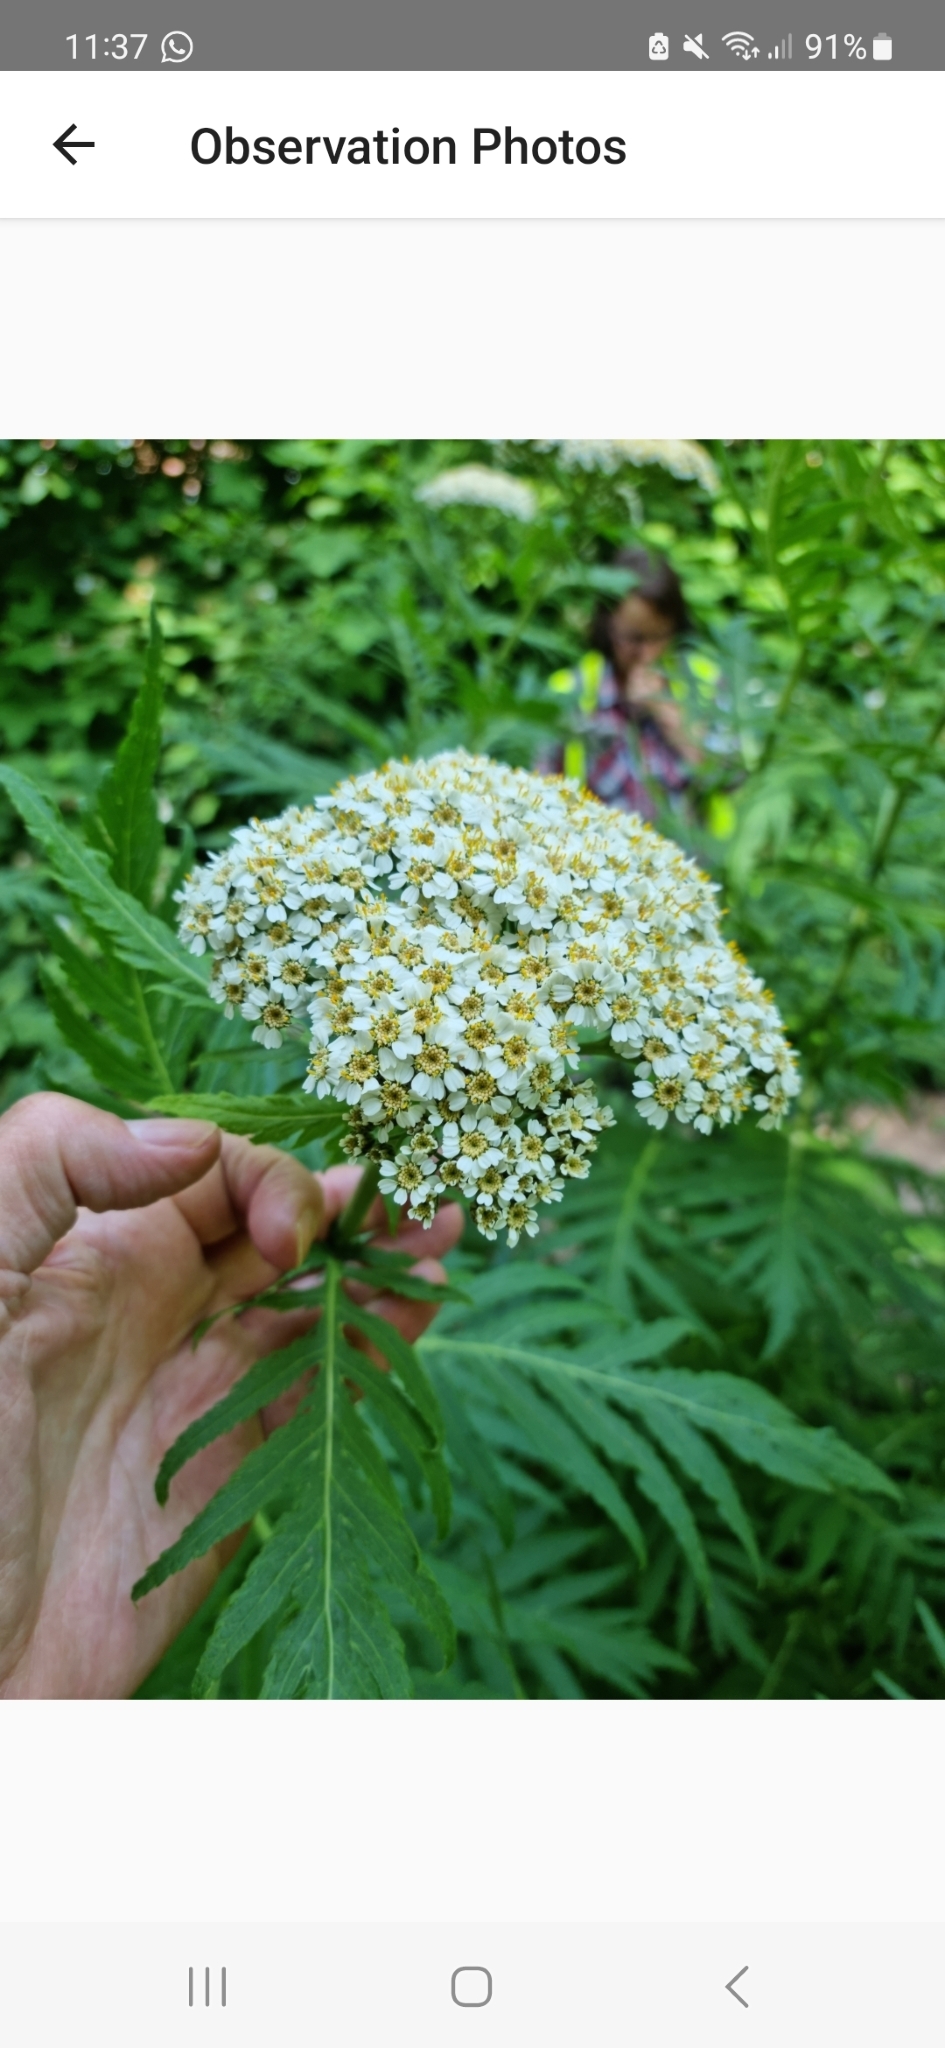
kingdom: Plantae
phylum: Tracheophyta
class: Magnoliopsida
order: Asterales
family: Asteraceae
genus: Tanacetum
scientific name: Tanacetum macrophyllum
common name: Rayed tansy
